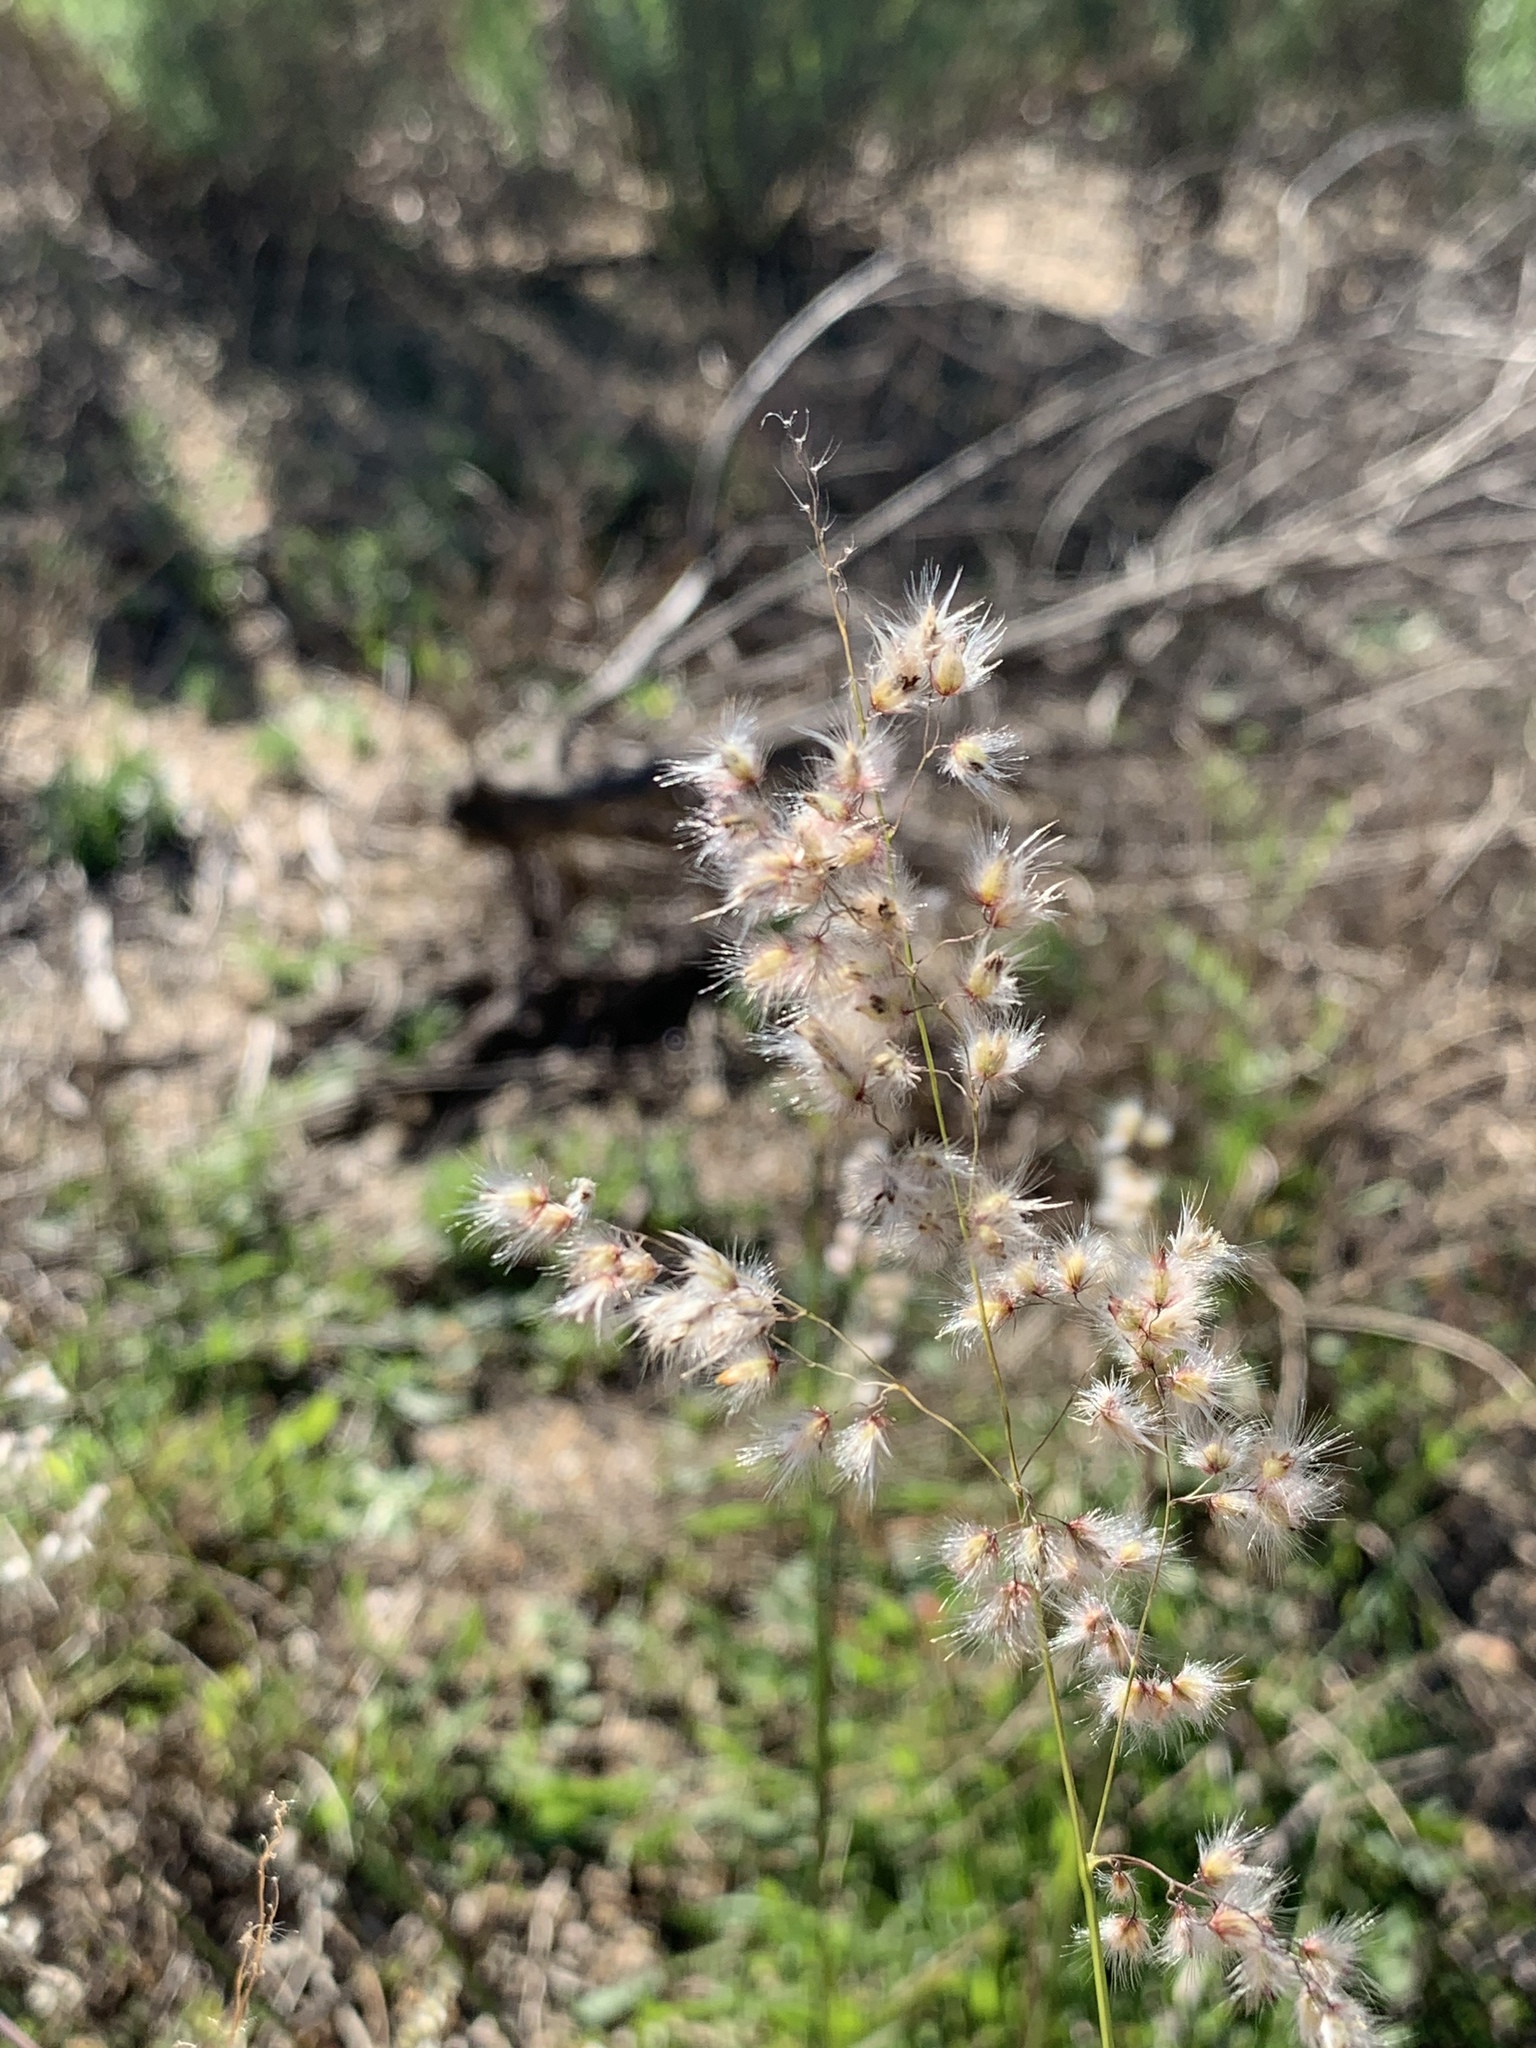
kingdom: Plantae
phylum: Tracheophyta
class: Liliopsida
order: Poales
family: Poaceae
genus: Melinis
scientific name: Melinis repens
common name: Rose natal grass
